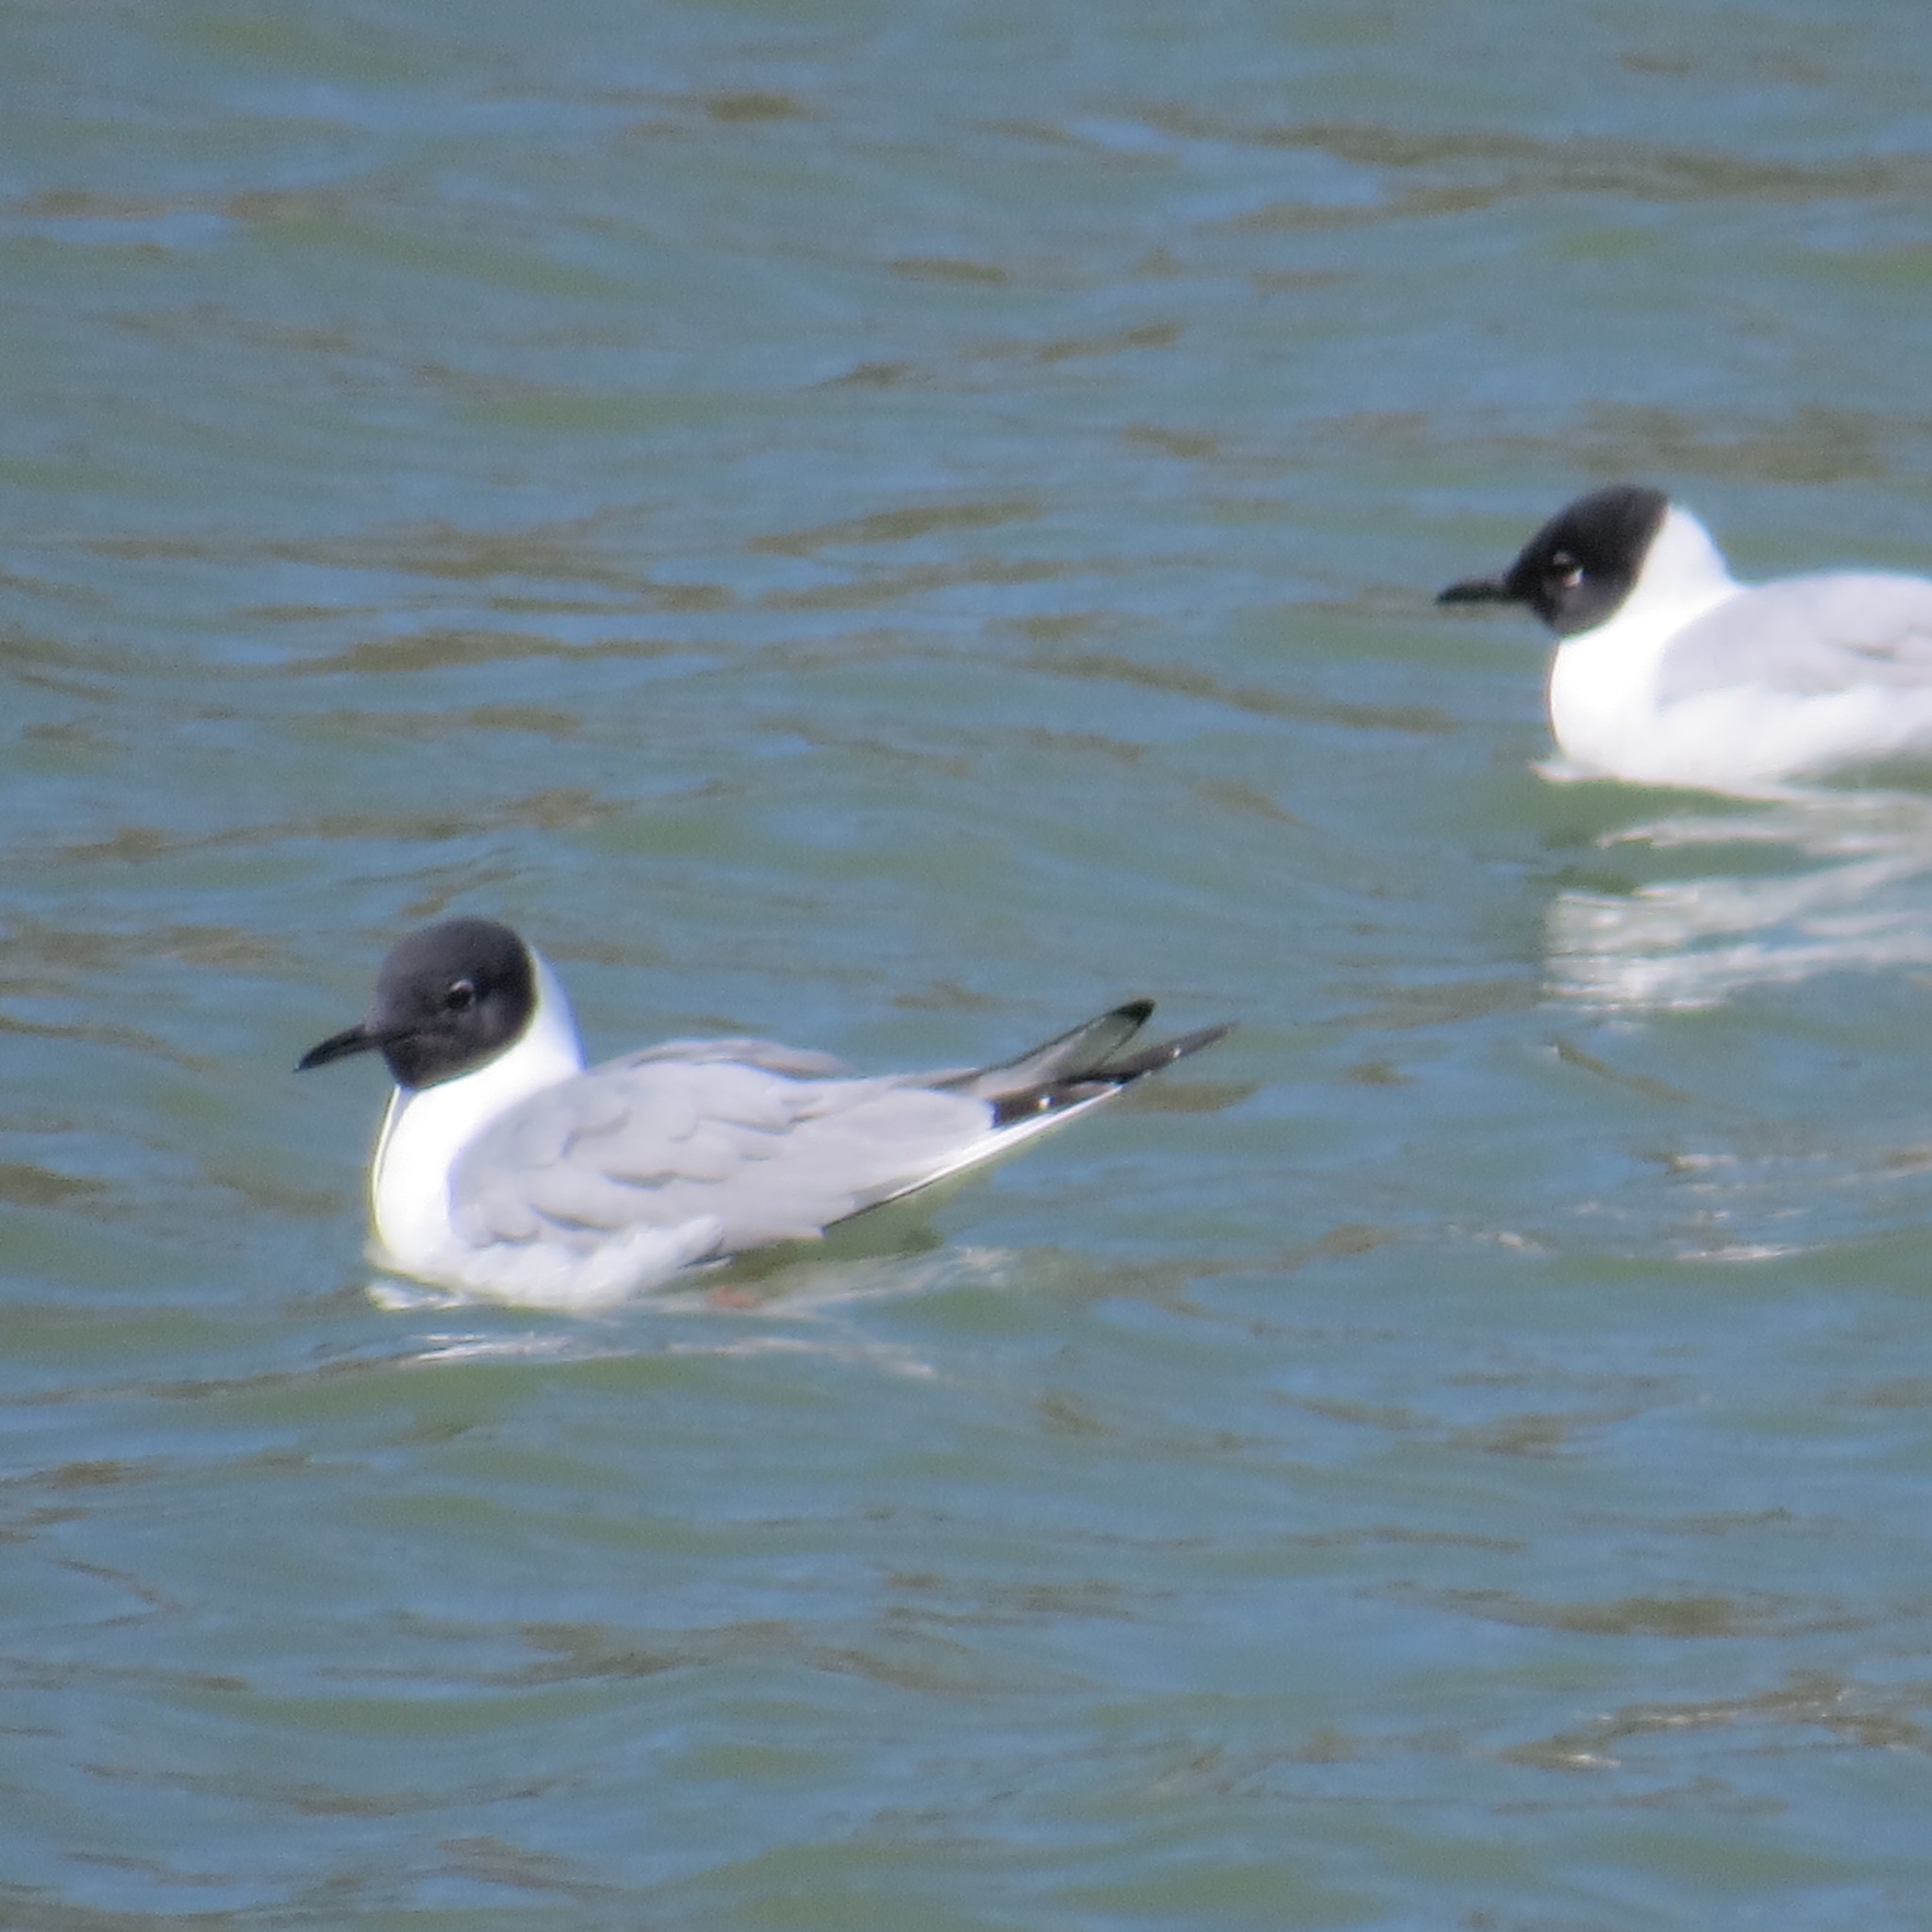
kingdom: Animalia
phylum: Chordata
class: Aves
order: Charadriiformes
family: Laridae
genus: Chroicocephalus
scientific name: Chroicocephalus philadelphia
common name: Bonaparte's gull
